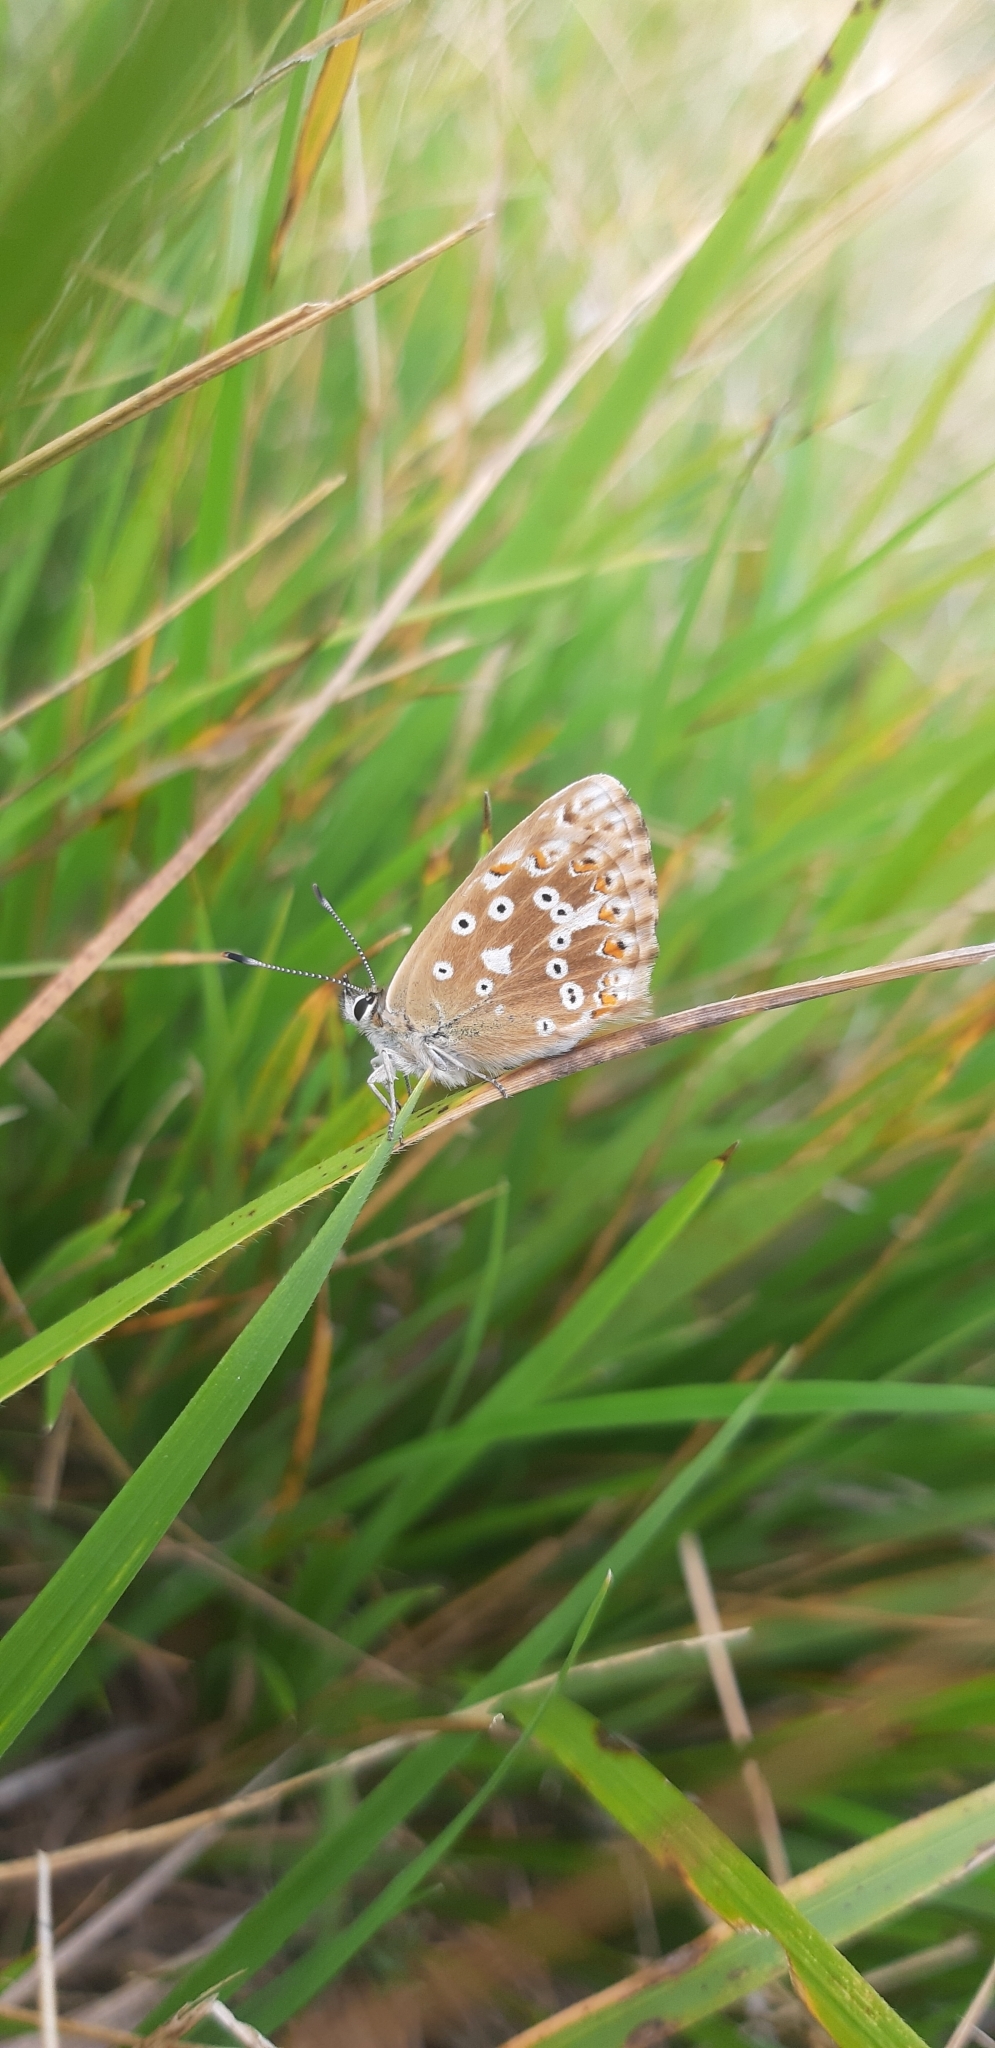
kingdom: Animalia
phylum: Arthropoda
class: Insecta
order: Lepidoptera
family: Lycaenidae
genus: Lysandra
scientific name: Lysandra coridon
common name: Chalkhill blue
